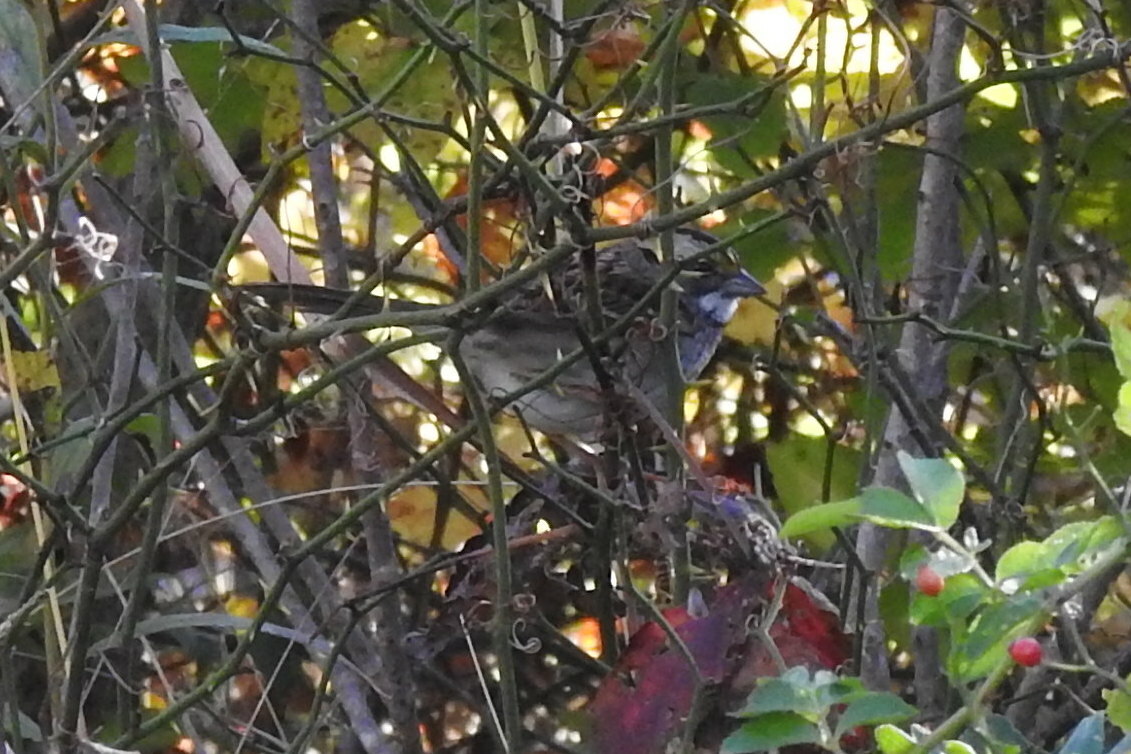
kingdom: Animalia
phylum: Chordata
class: Aves
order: Passeriformes
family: Passerellidae
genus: Zonotrichia
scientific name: Zonotrichia albicollis
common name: White-throated sparrow
